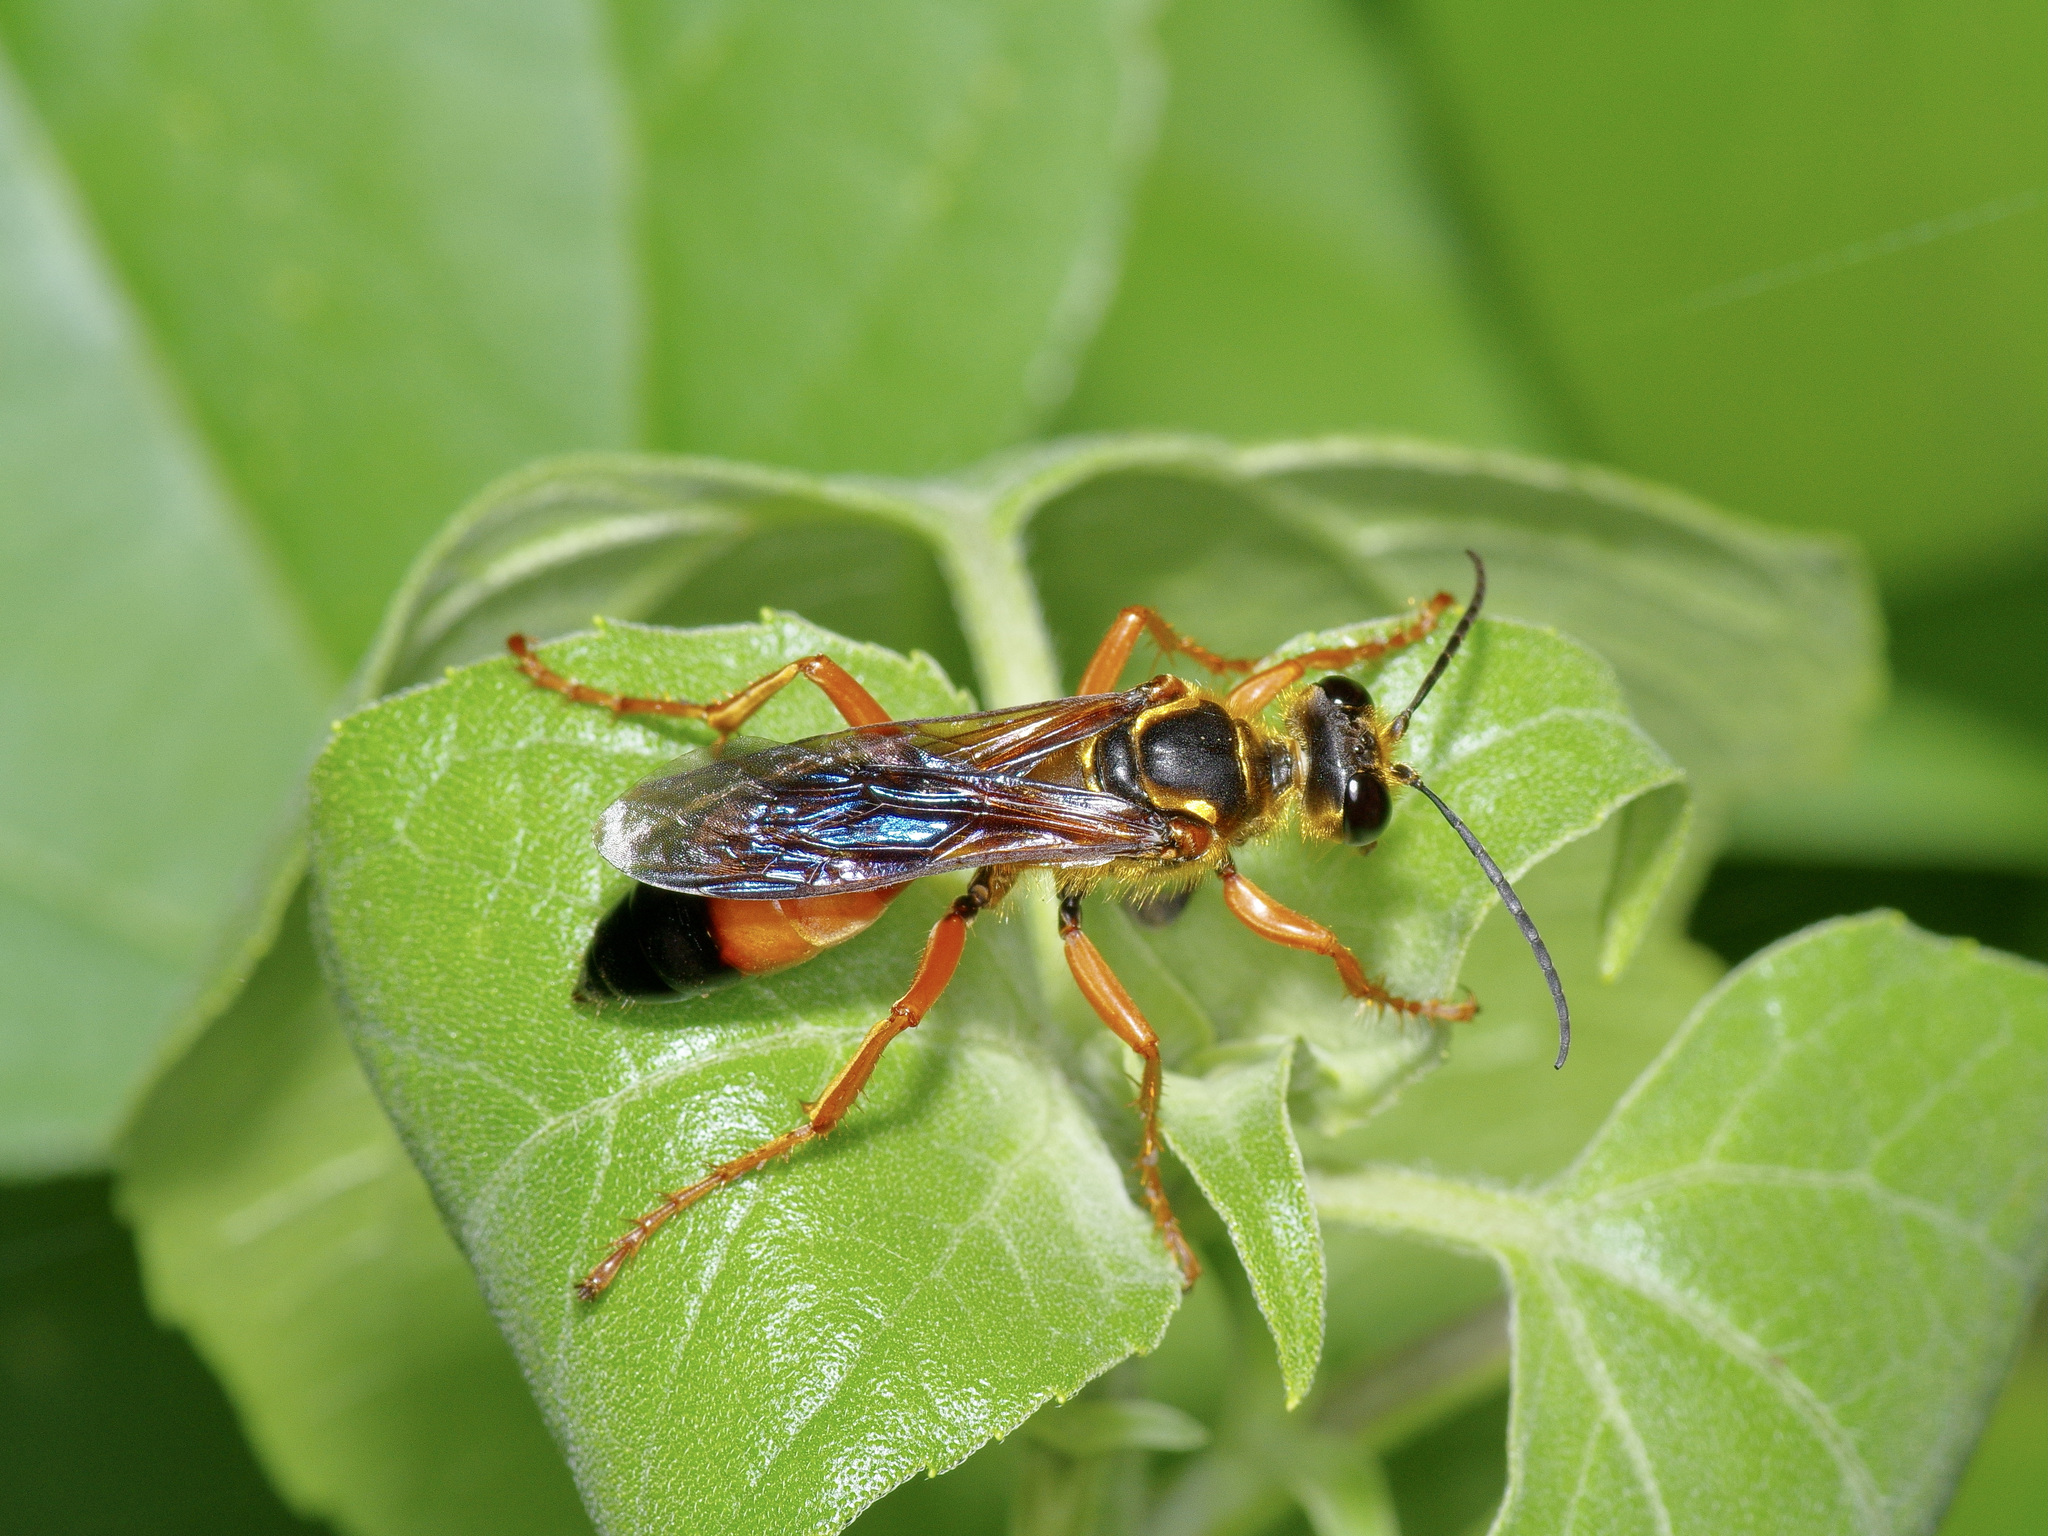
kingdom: Animalia
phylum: Arthropoda
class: Insecta
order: Hymenoptera
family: Sphecidae
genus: Sphex
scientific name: Sphex ichneumoneus
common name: Great golden digger wasp
